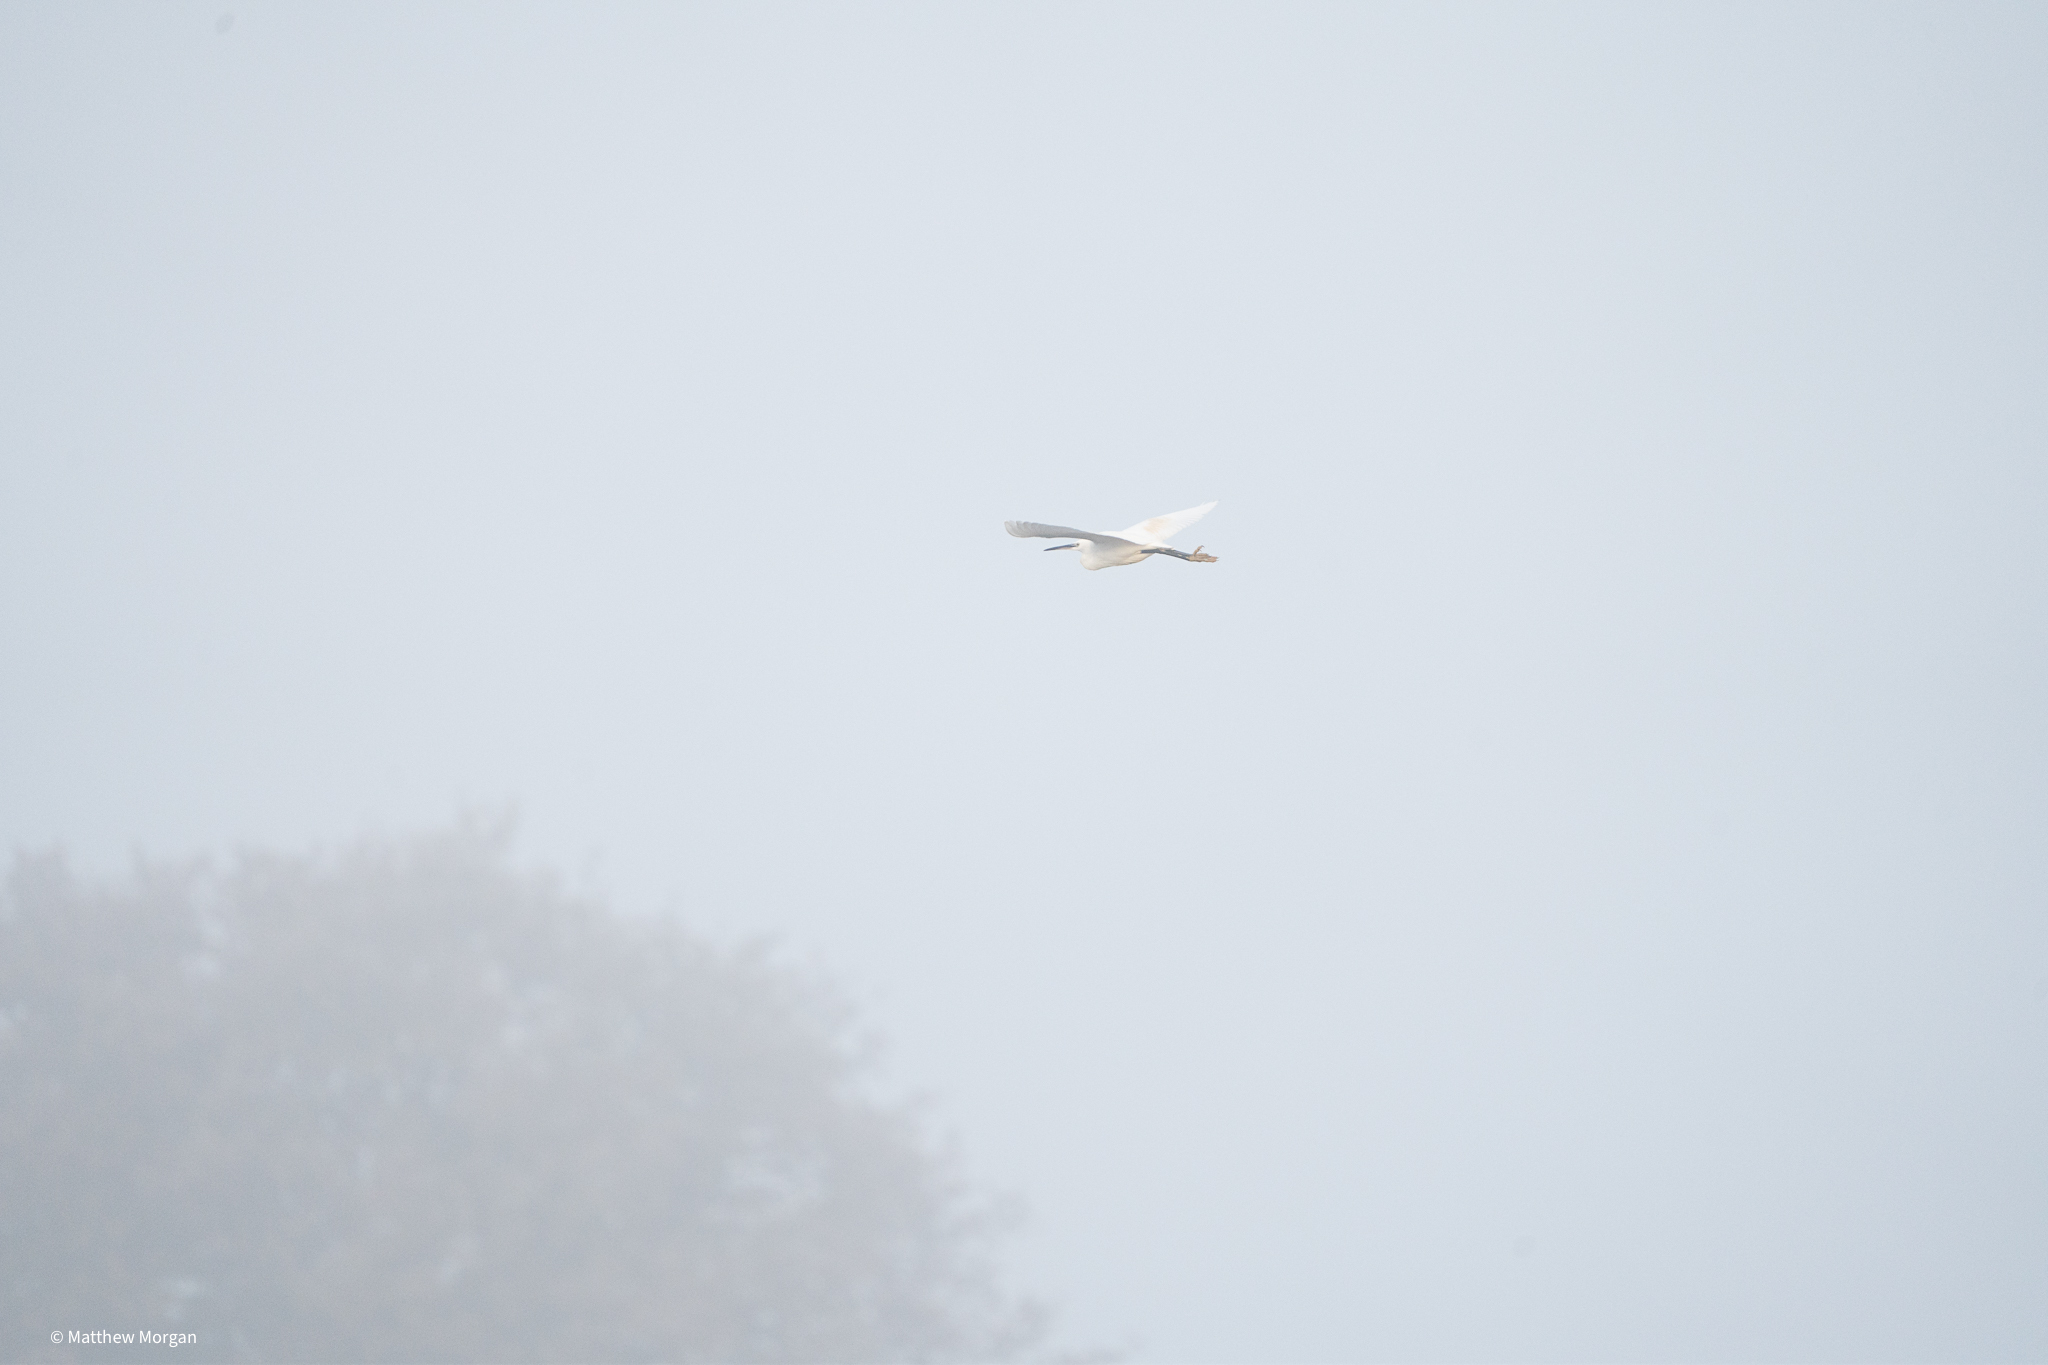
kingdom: Animalia
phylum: Chordata
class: Aves
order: Pelecaniformes
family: Ardeidae
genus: Egretta
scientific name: Egretta garzetta
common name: Little egret
